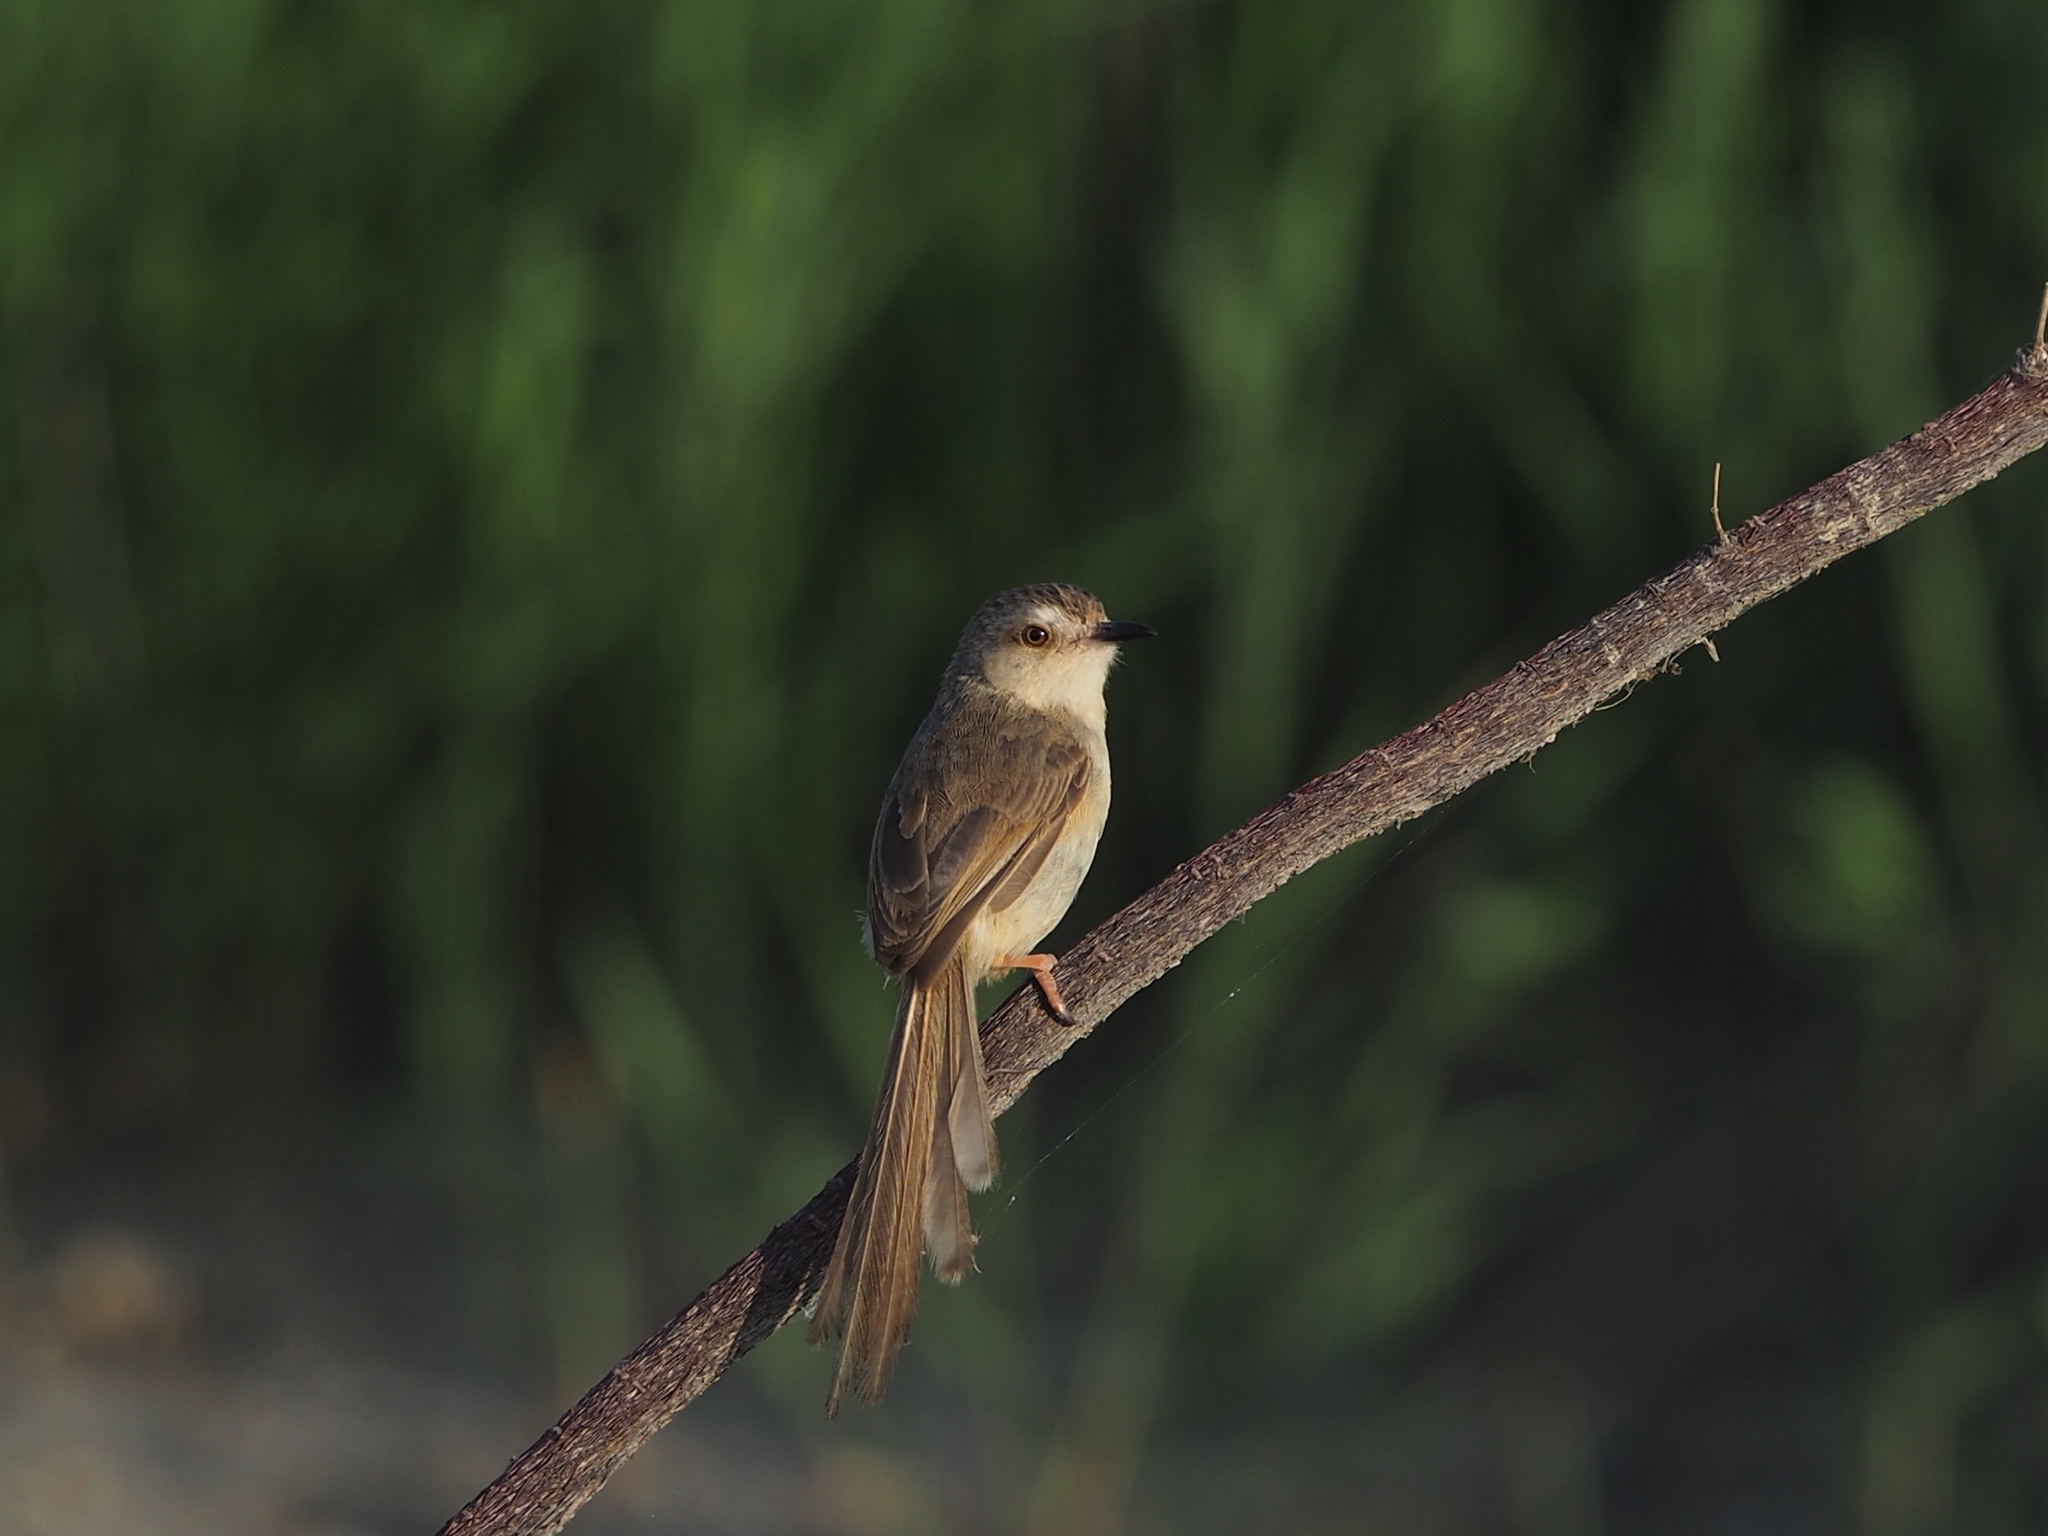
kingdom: Animalia
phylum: Chordata
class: Aves
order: Passeriformes
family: Cisticolidae
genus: Prinia
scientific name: Prinia inornata
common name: Plain prinia
